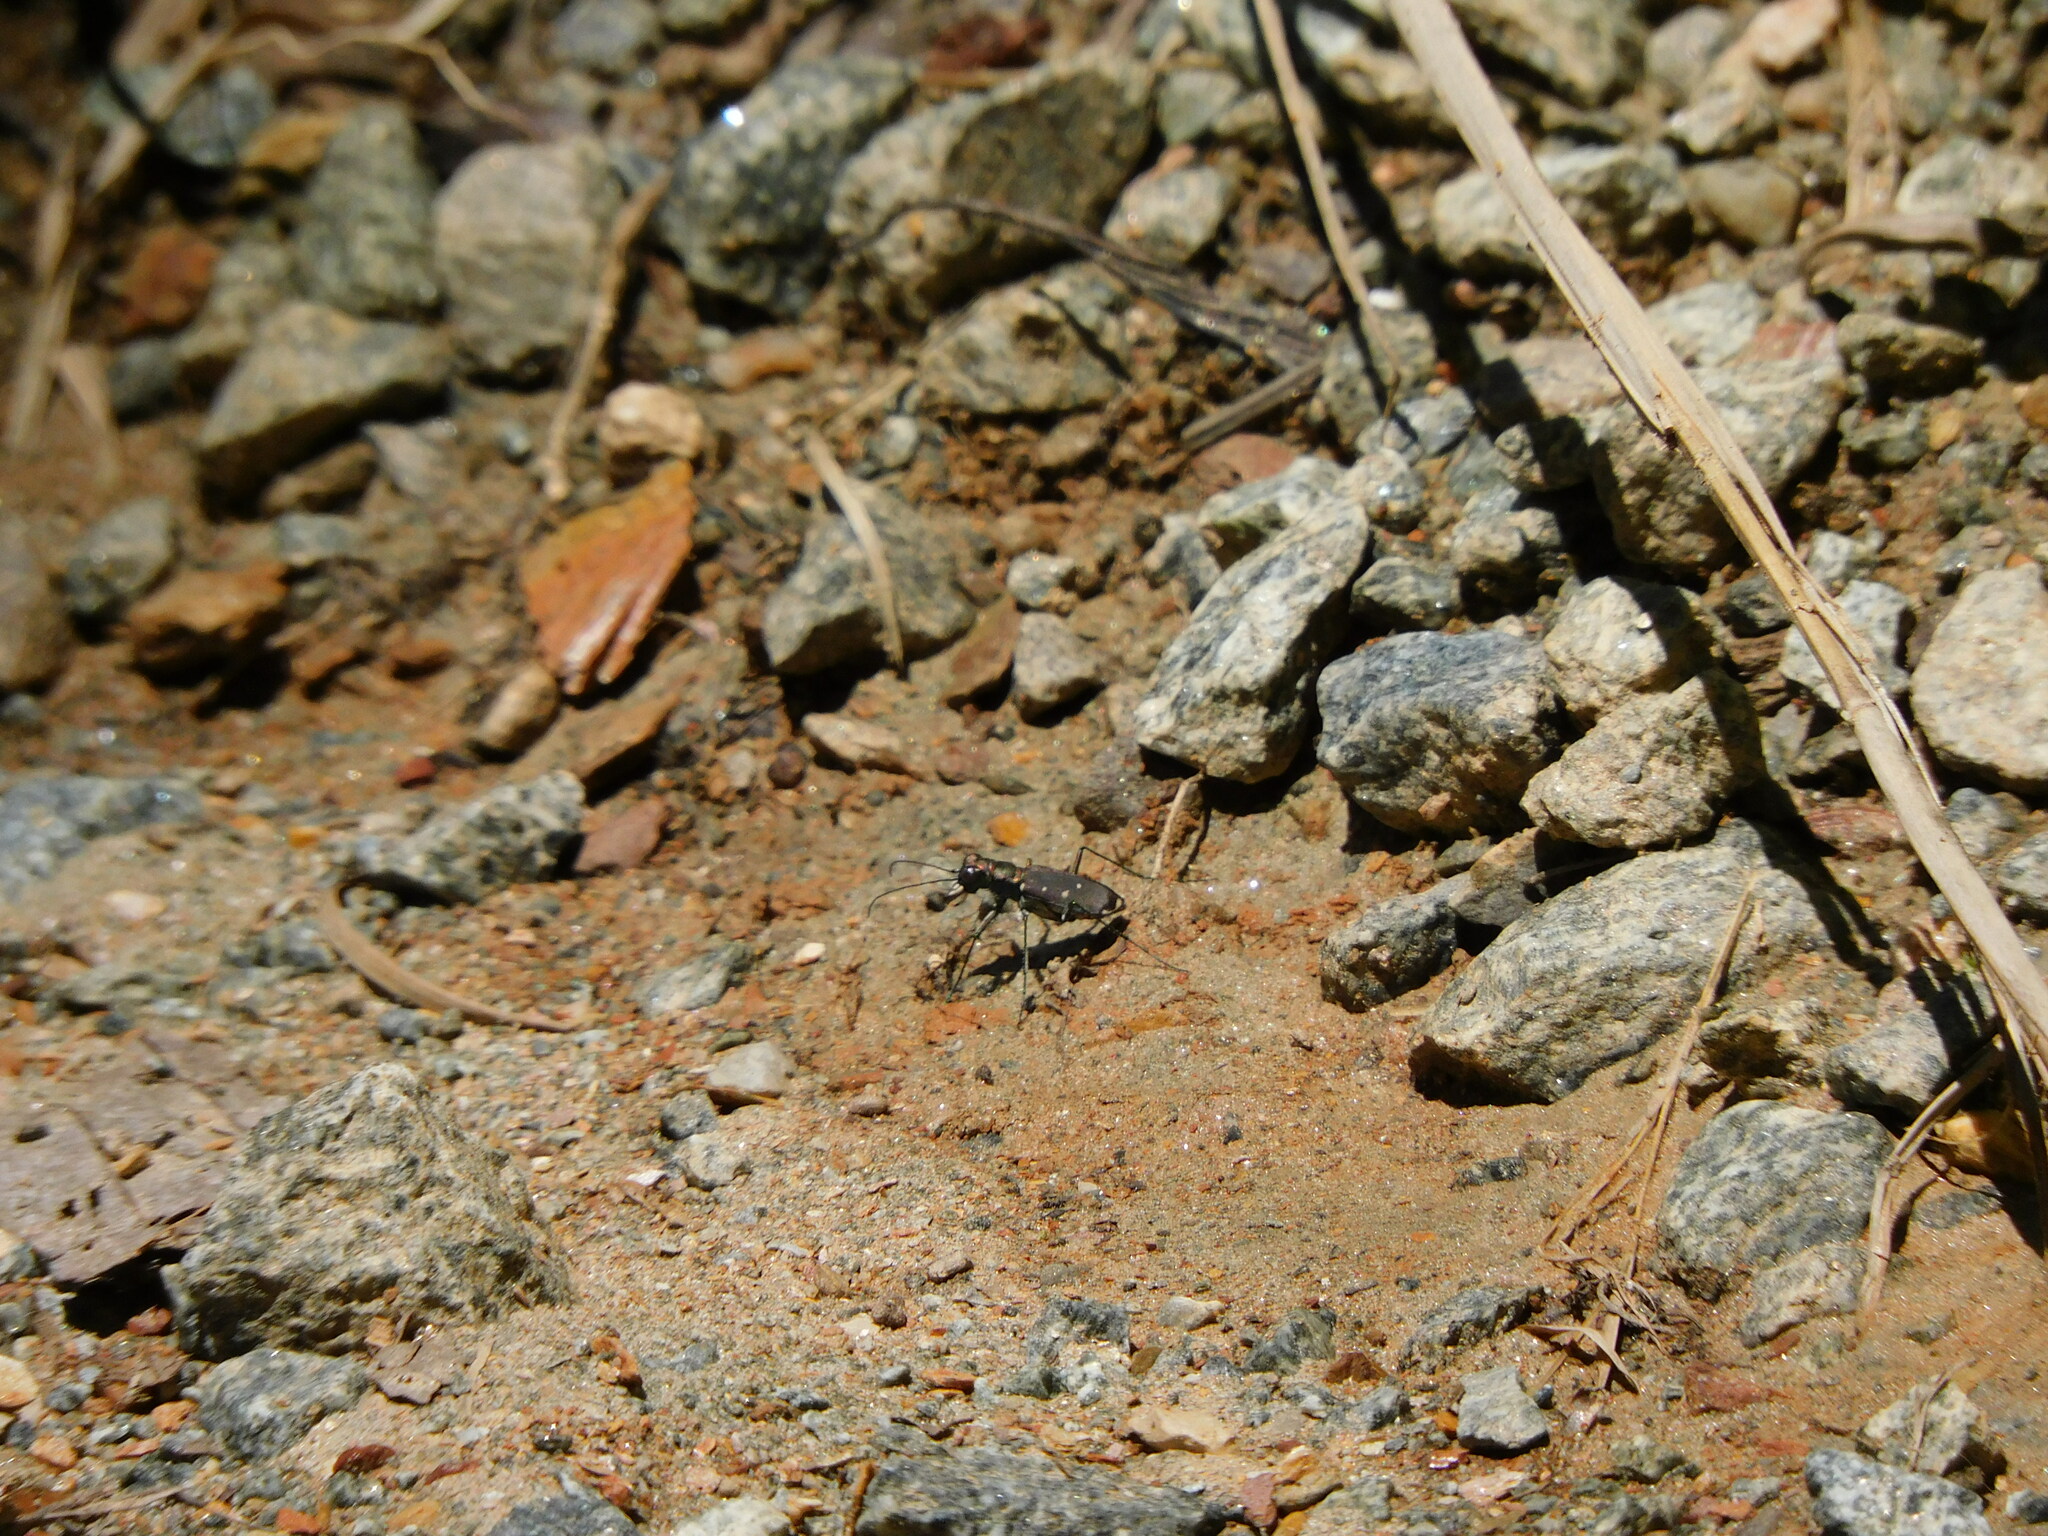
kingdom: Animalia
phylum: Arthropoda
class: Insecta
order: Coleoptera
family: Carabidae
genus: Cicindela
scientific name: Cicindela rufiventris
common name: Eastern red-bellied tiger beetle
